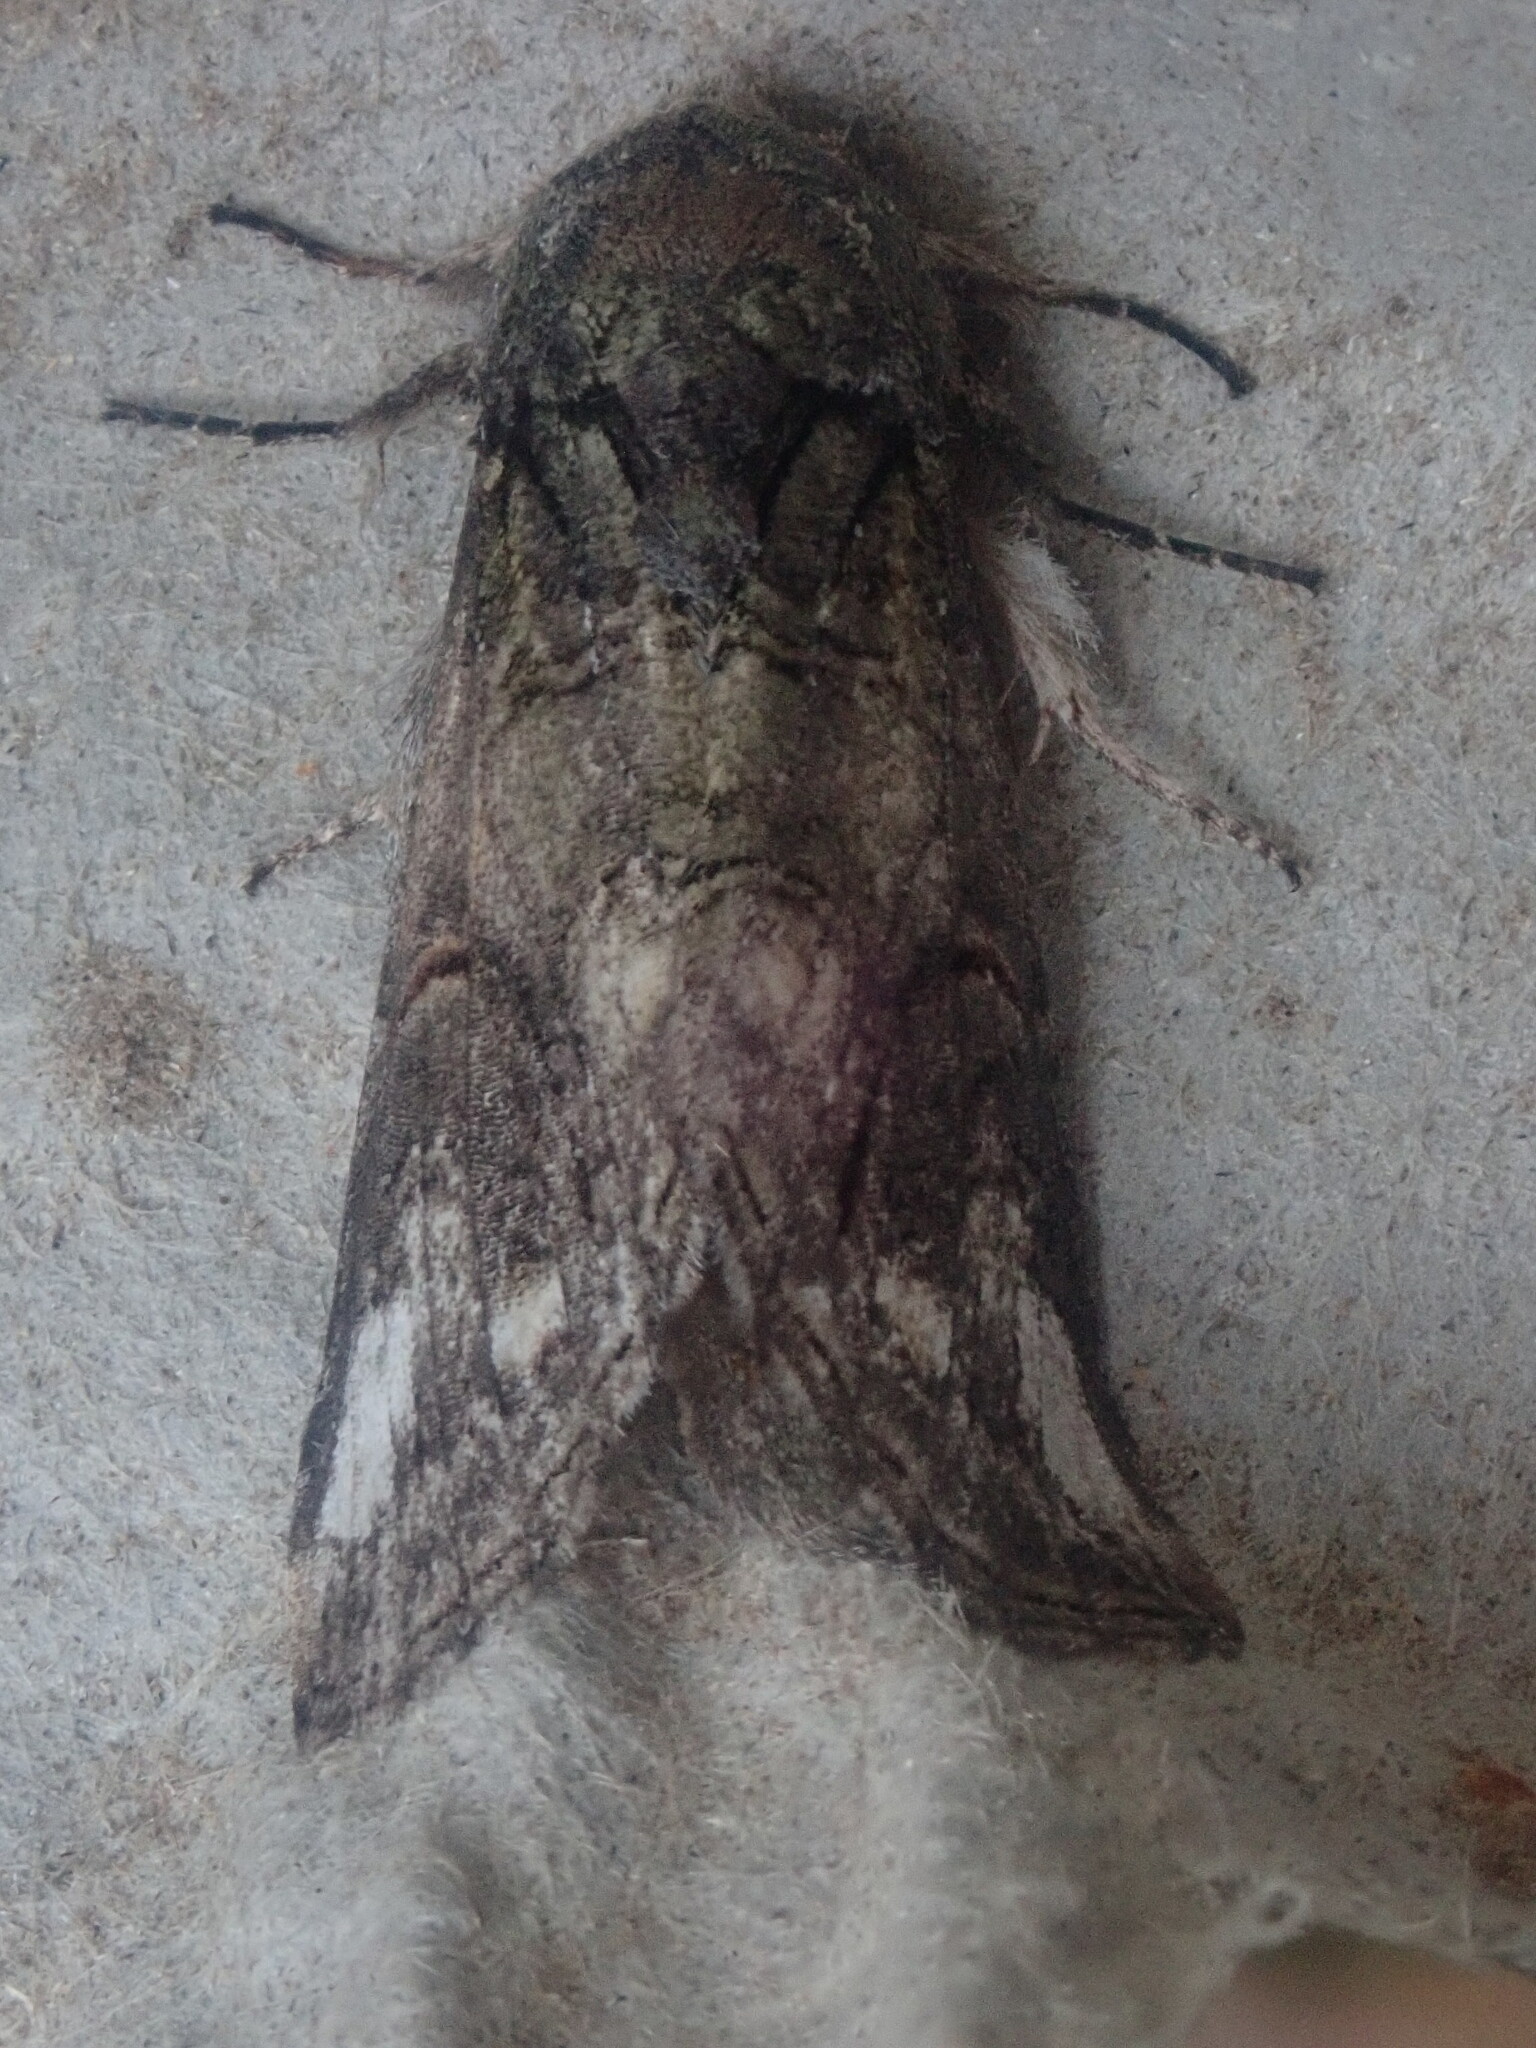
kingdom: Animalia
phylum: Arthropoda
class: Insecta
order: Lepidoptera
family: Notodontidae
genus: Heterocampa
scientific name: Heterocampa obliqua
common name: Oblique heterocampa
